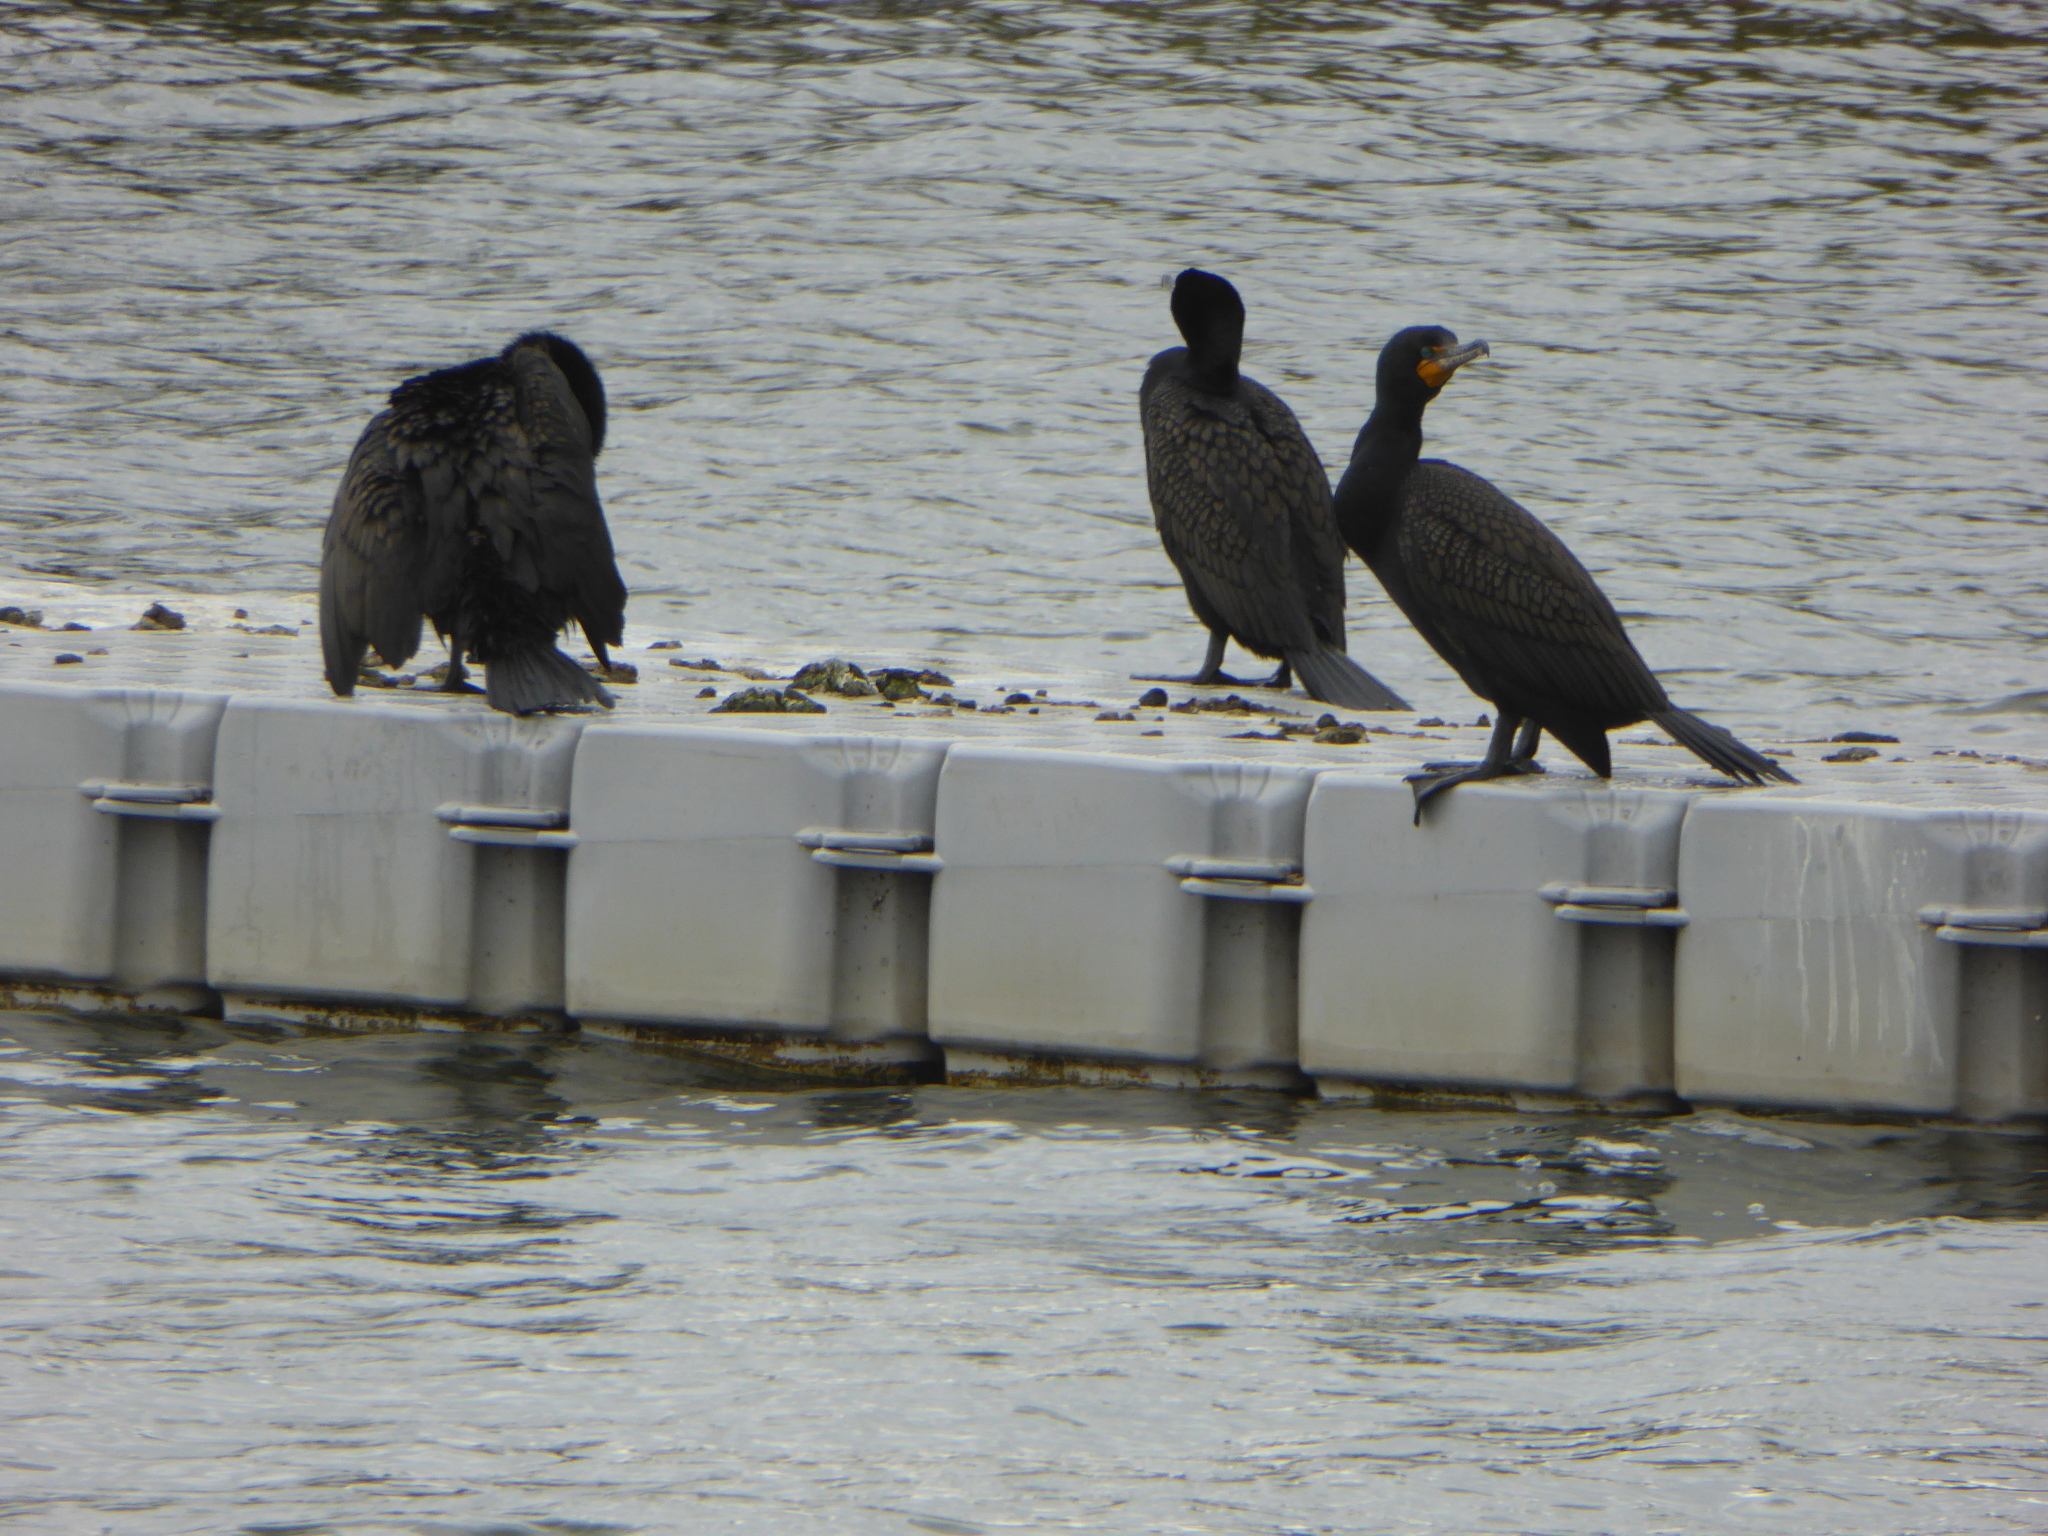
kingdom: Animalia
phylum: Chordata
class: Aves
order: Suliformes
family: Phalacrocoracidae
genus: Phalacrocorax
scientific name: Phalacrocorax auritus
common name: Double-crested cormorant
